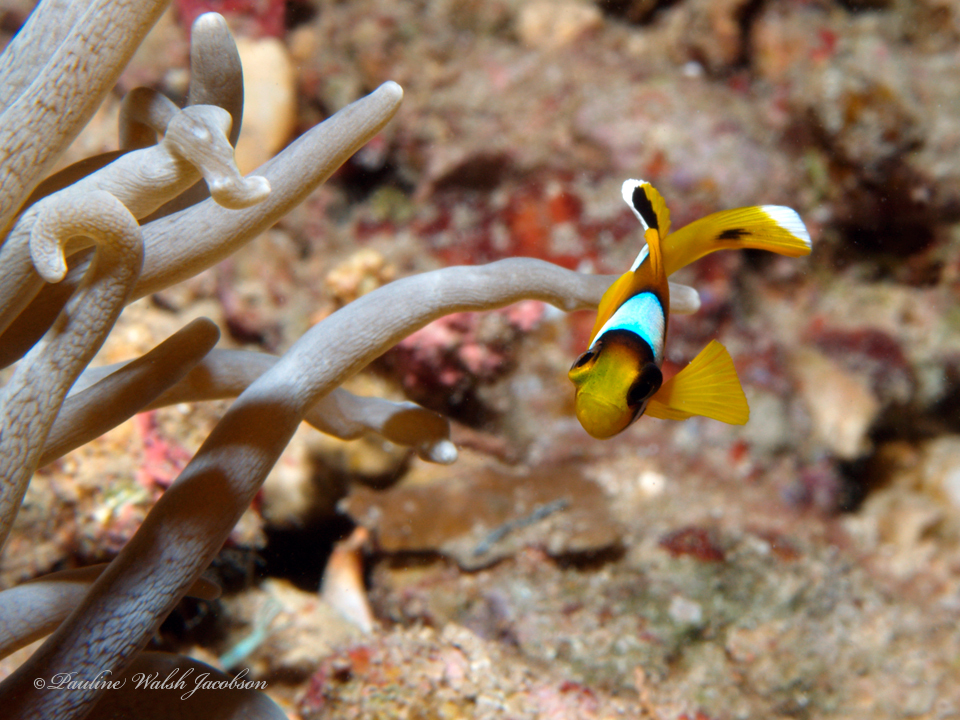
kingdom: Animalia
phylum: Chordata
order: Perciformes
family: Pomacentridae
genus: Amphiprion
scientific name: Amphiprion bicinctus
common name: Two-banded anemonefish
